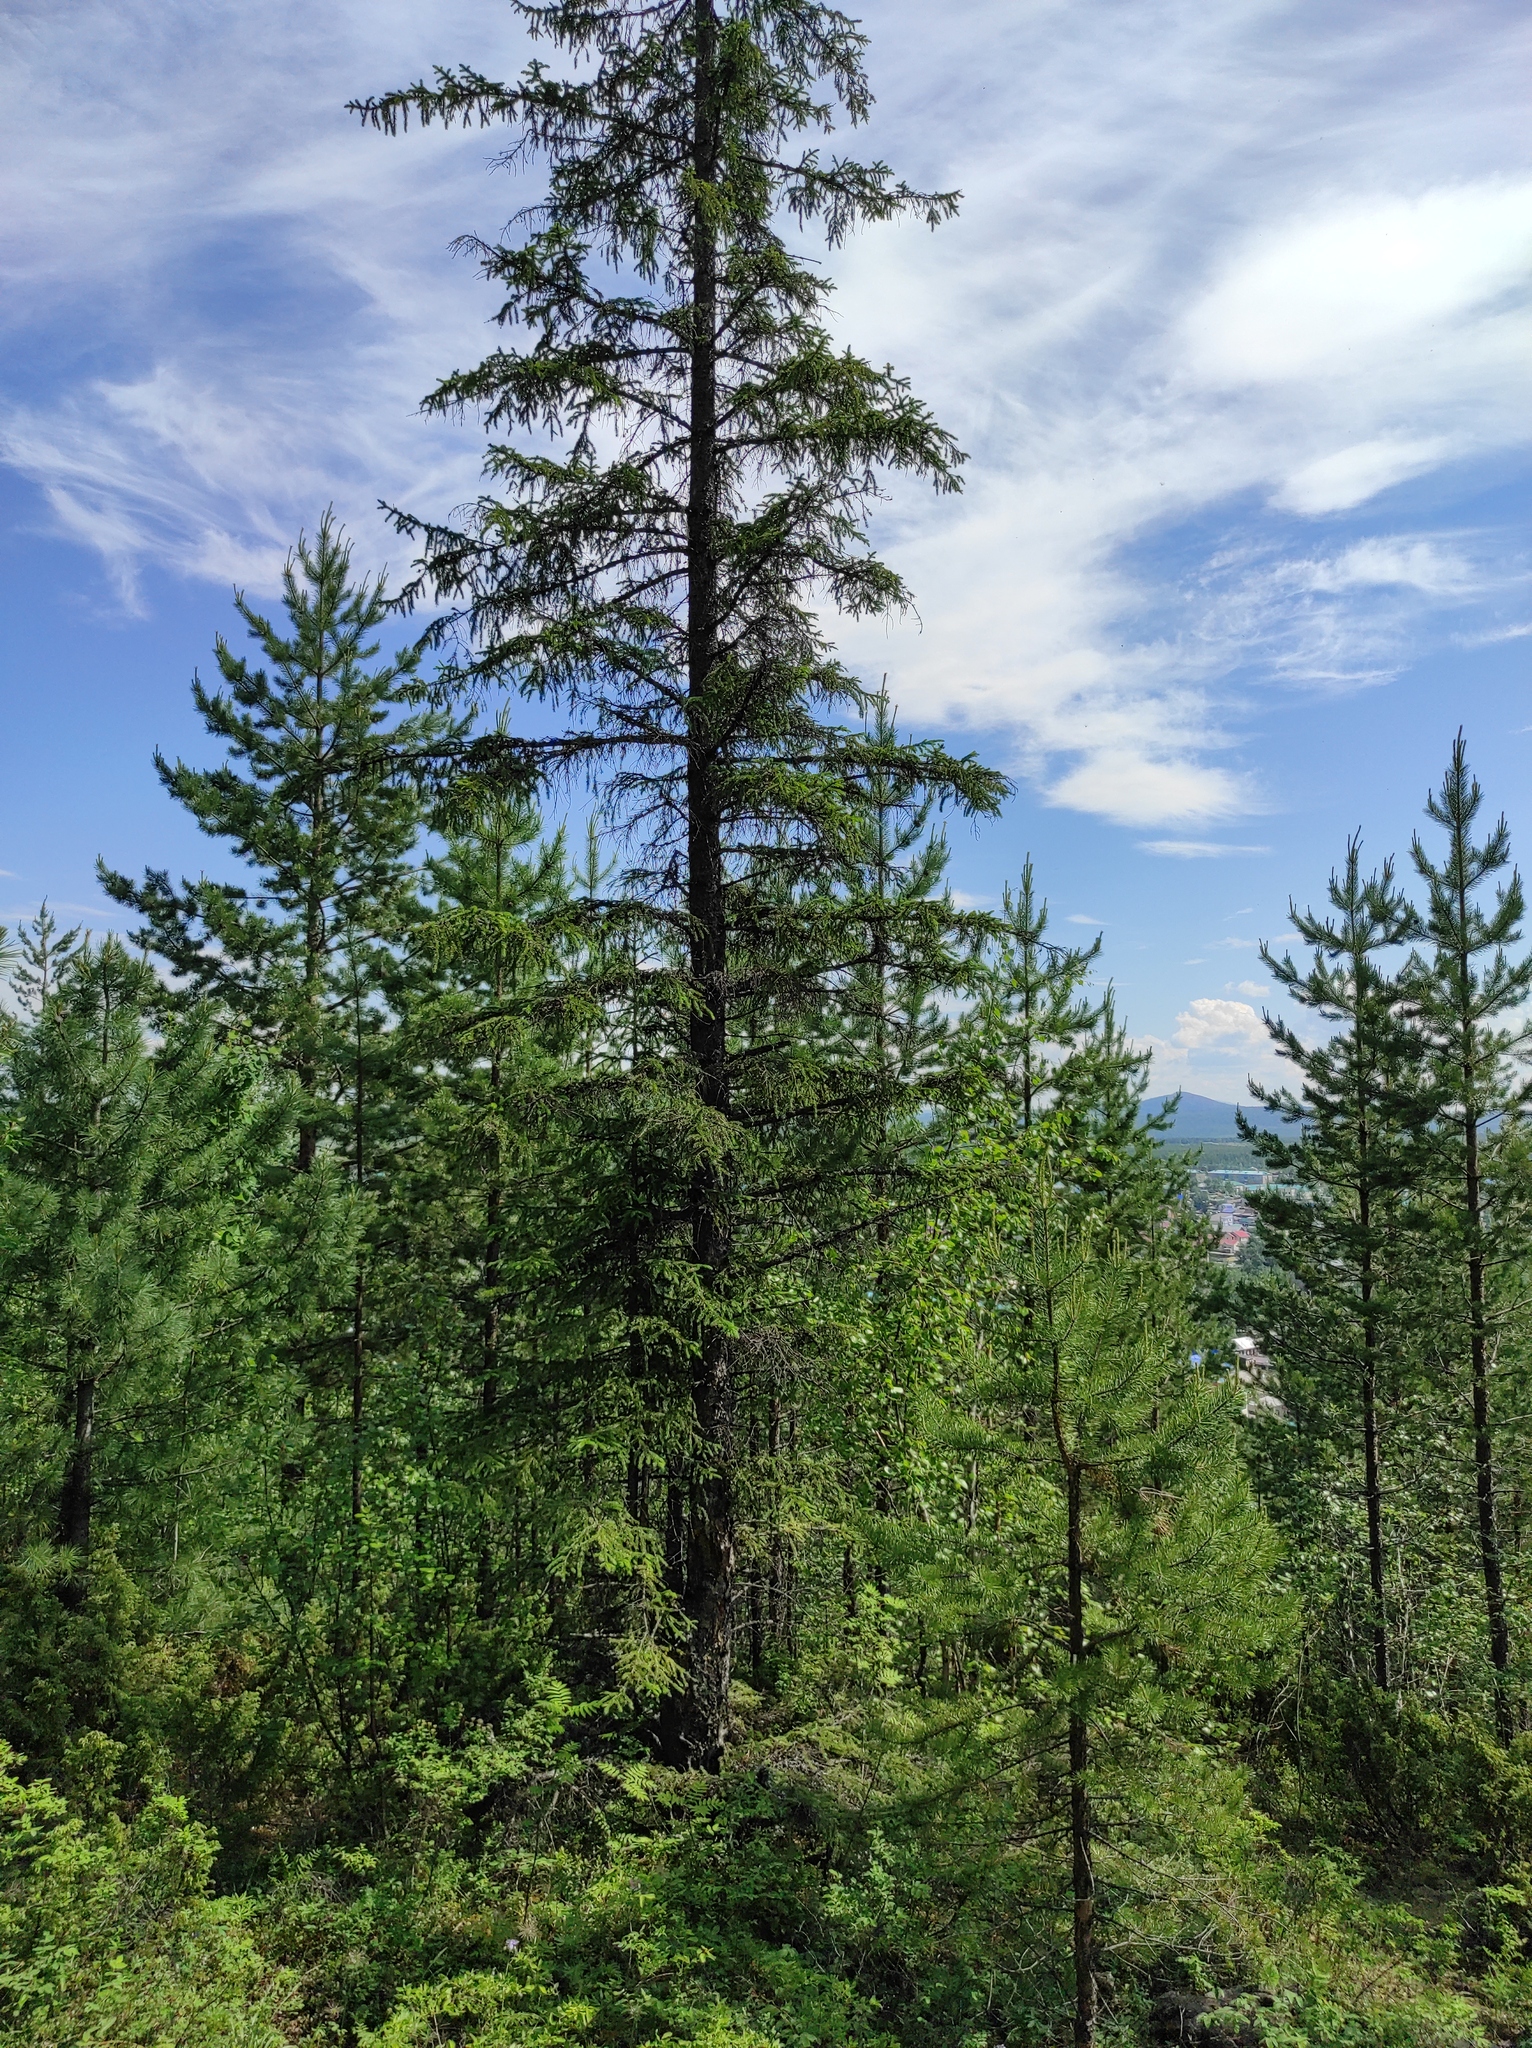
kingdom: Plantae
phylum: Tracheophyta
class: Pinopsida
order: Pinales
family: Pinaceae
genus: Pinus
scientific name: Pinus sylvestris
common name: Scots pine
